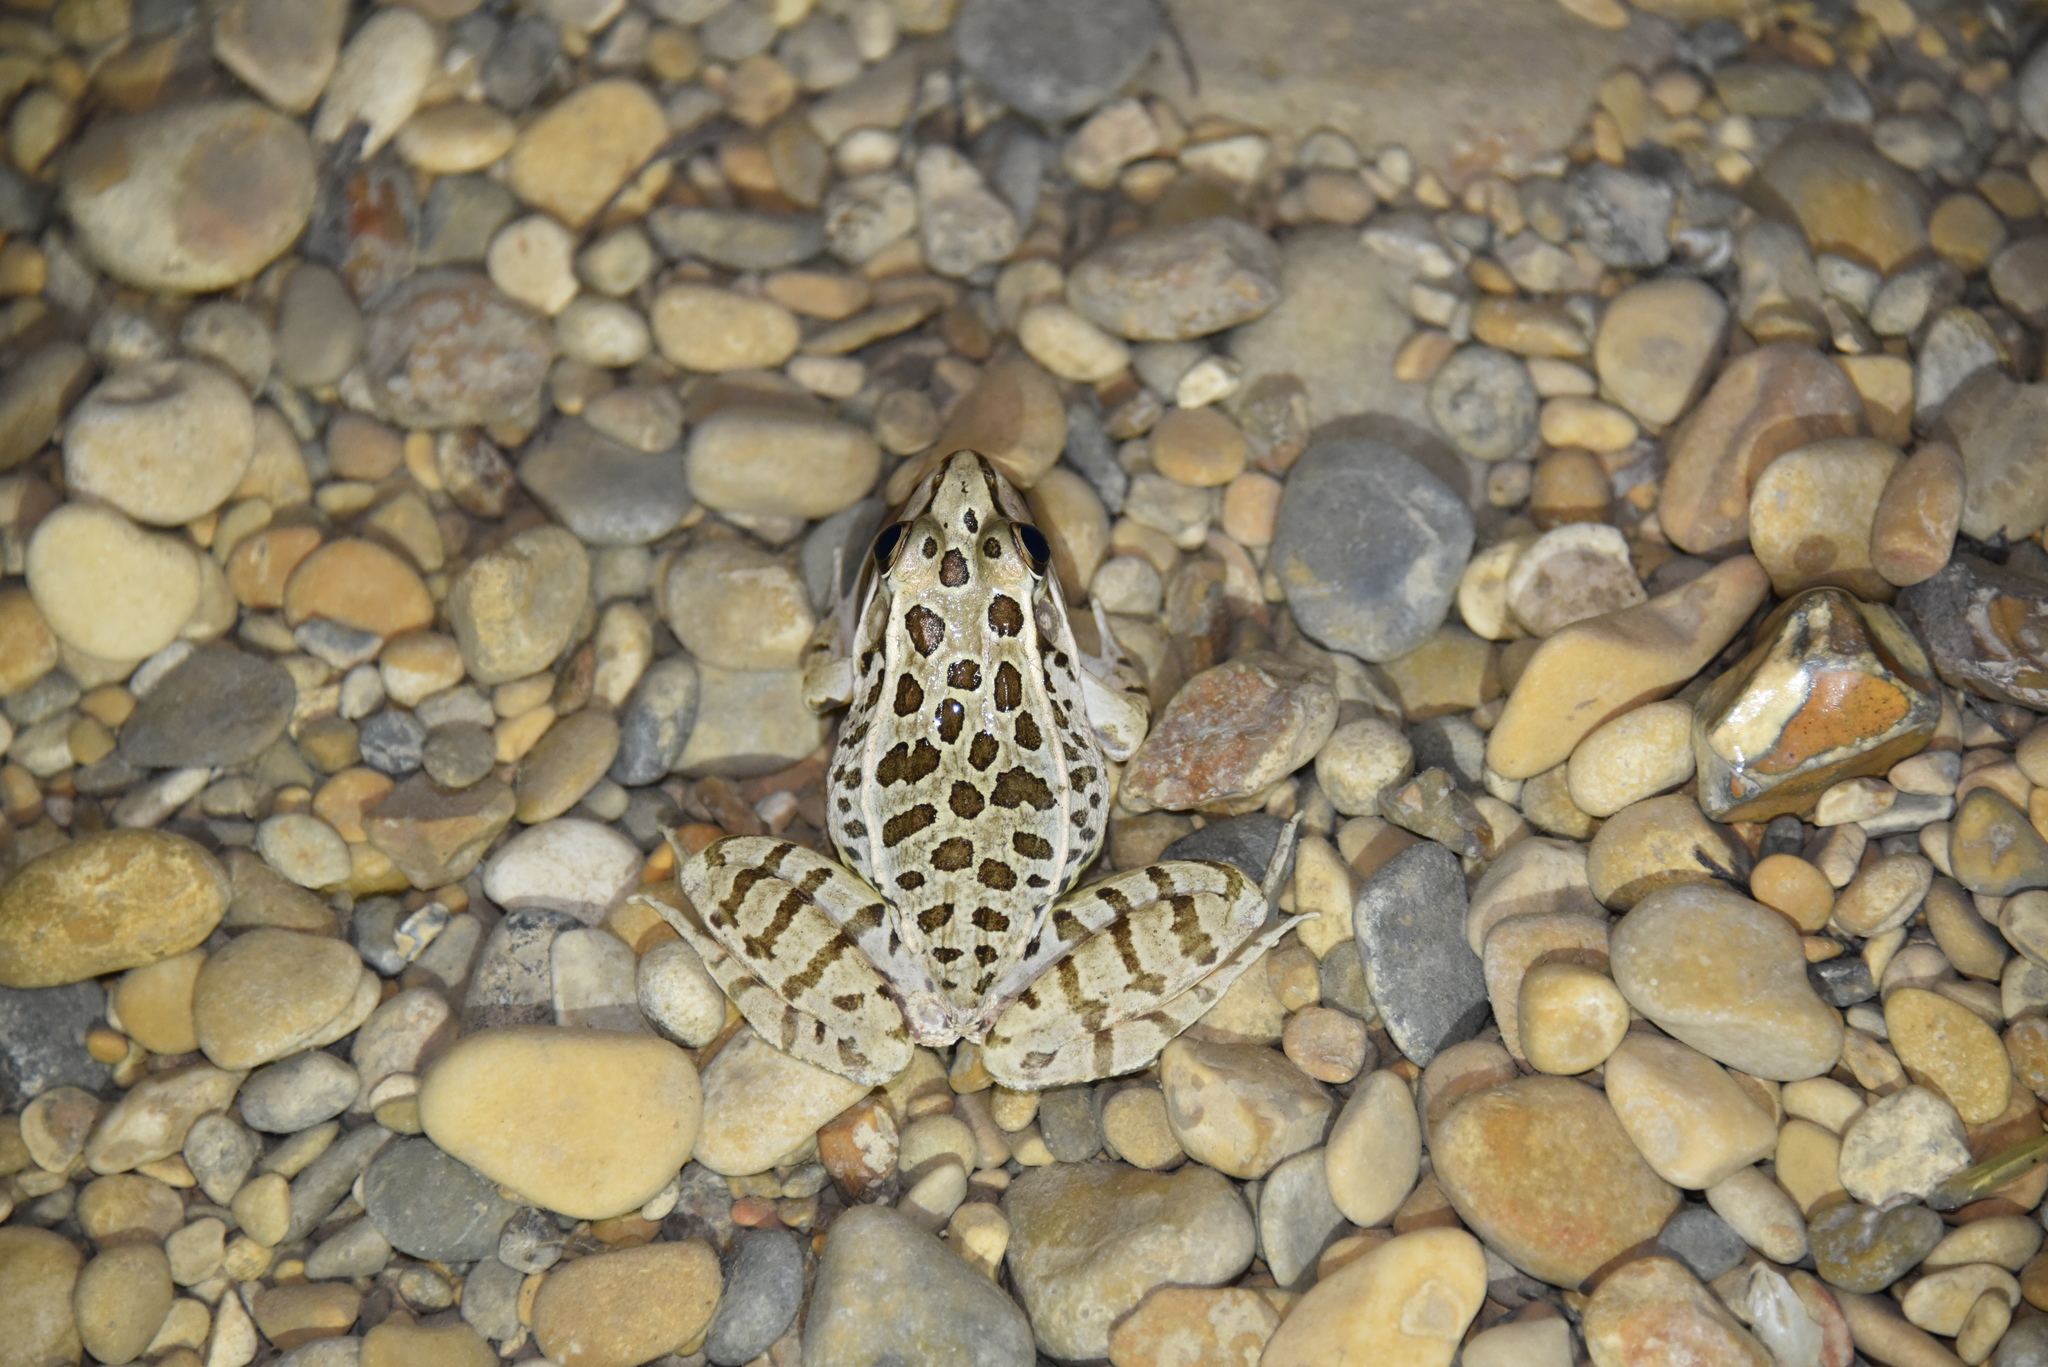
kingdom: Animalia
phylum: Chordata
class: Amphibia
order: Anura
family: Ranidae
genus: Lithobates
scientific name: Lithobates berlandieri
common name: Rio grande leopard frog
